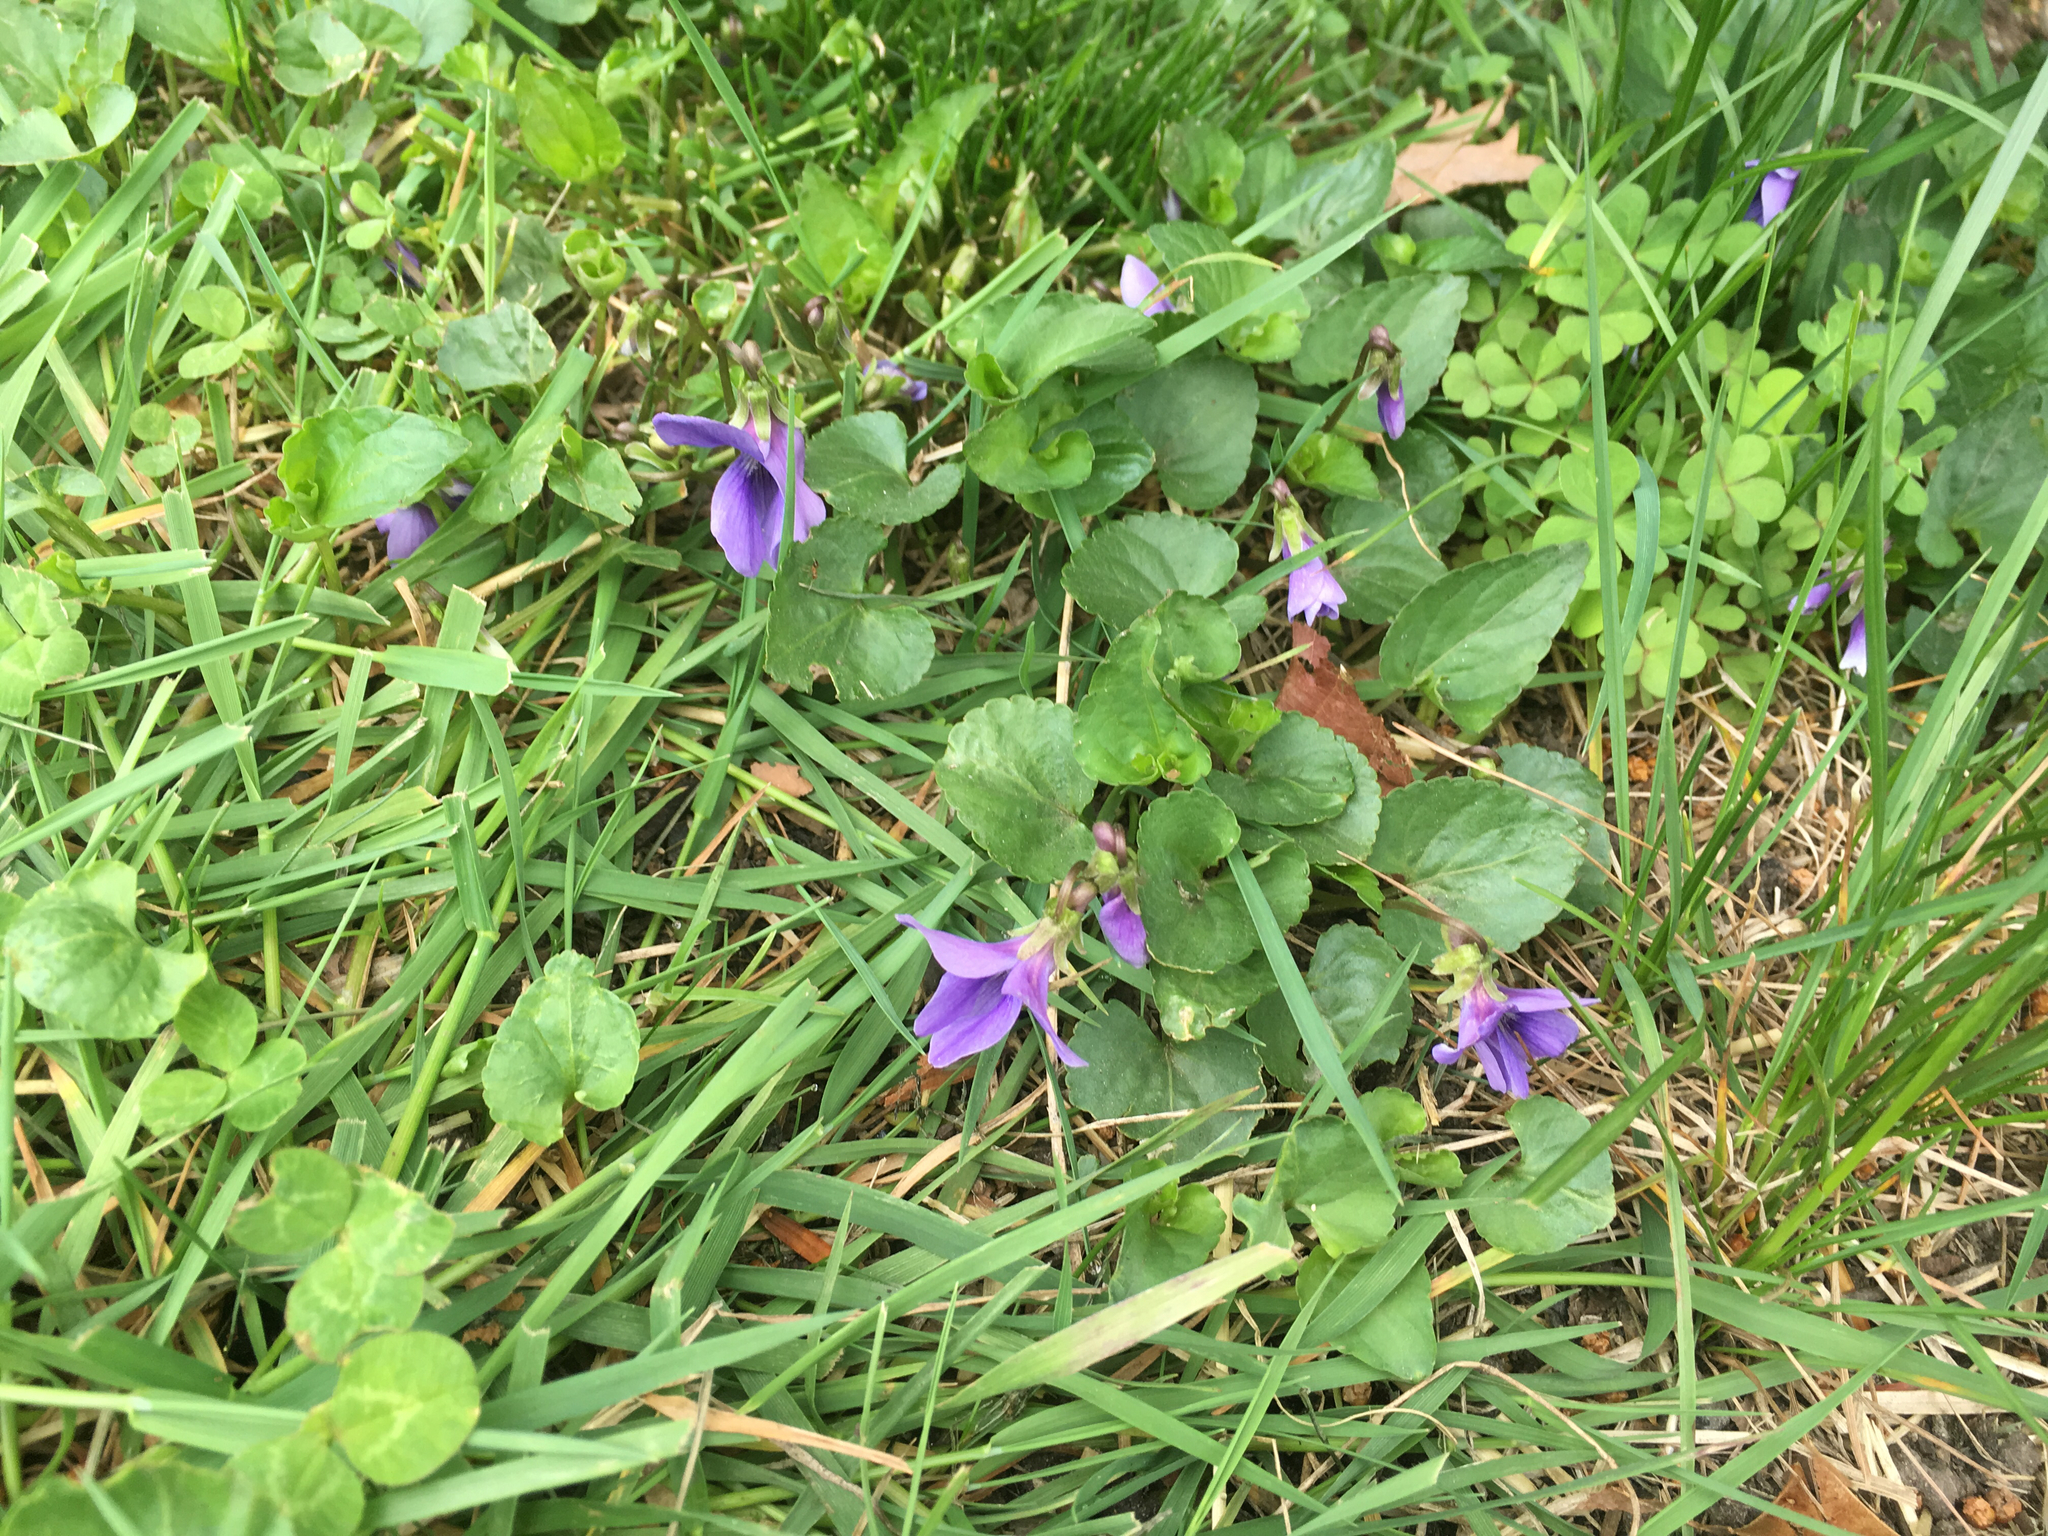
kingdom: Plantae
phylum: Tracheophyta
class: Magnoliopsida
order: Malpighiales
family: Violaceae
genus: Viola
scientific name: Viola sororia
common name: Dooryard violet
